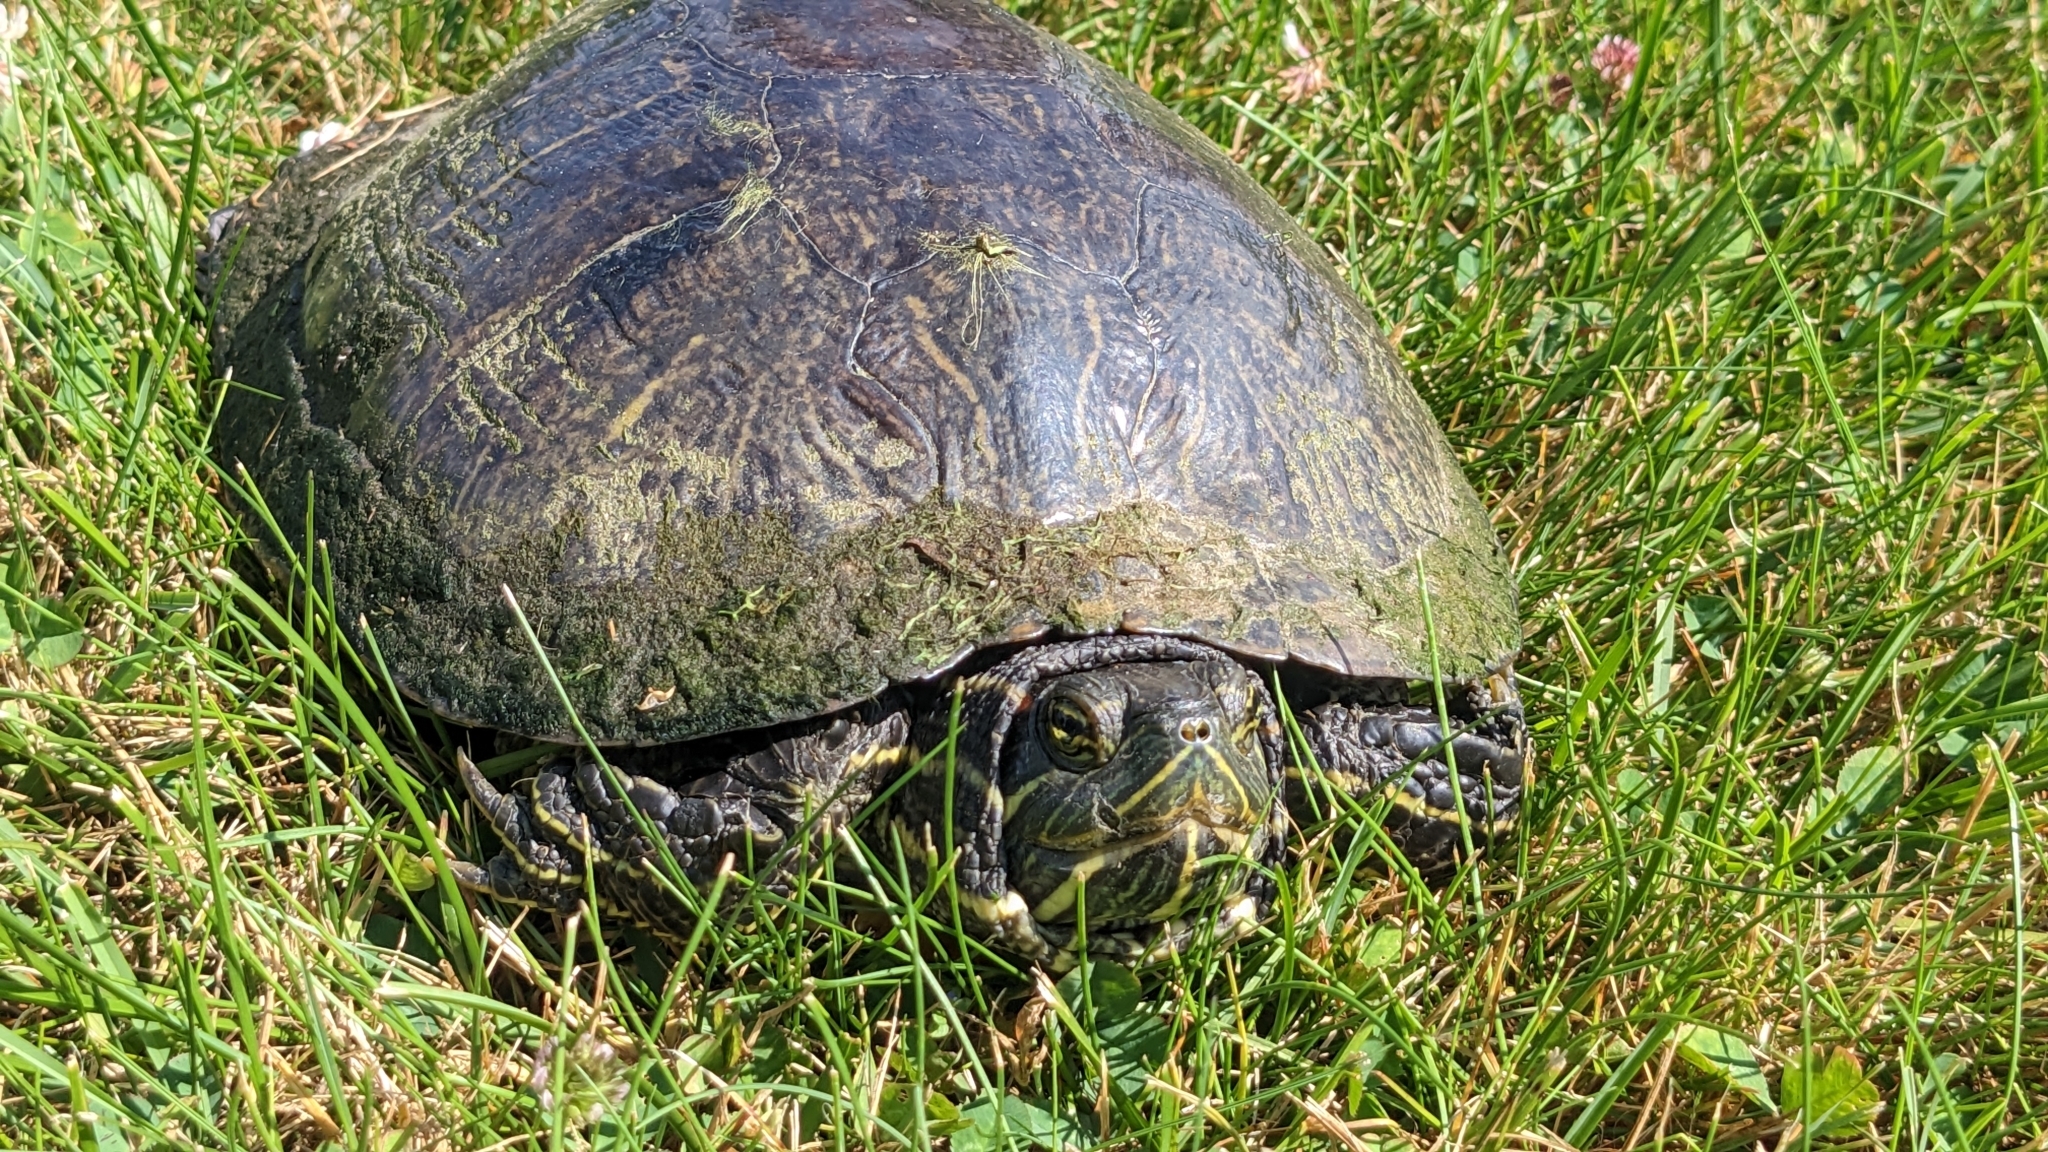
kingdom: Animalia
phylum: Chordata
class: Testudines
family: Emydidae
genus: Trachemys
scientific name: Trachemys scripta
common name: Slider
